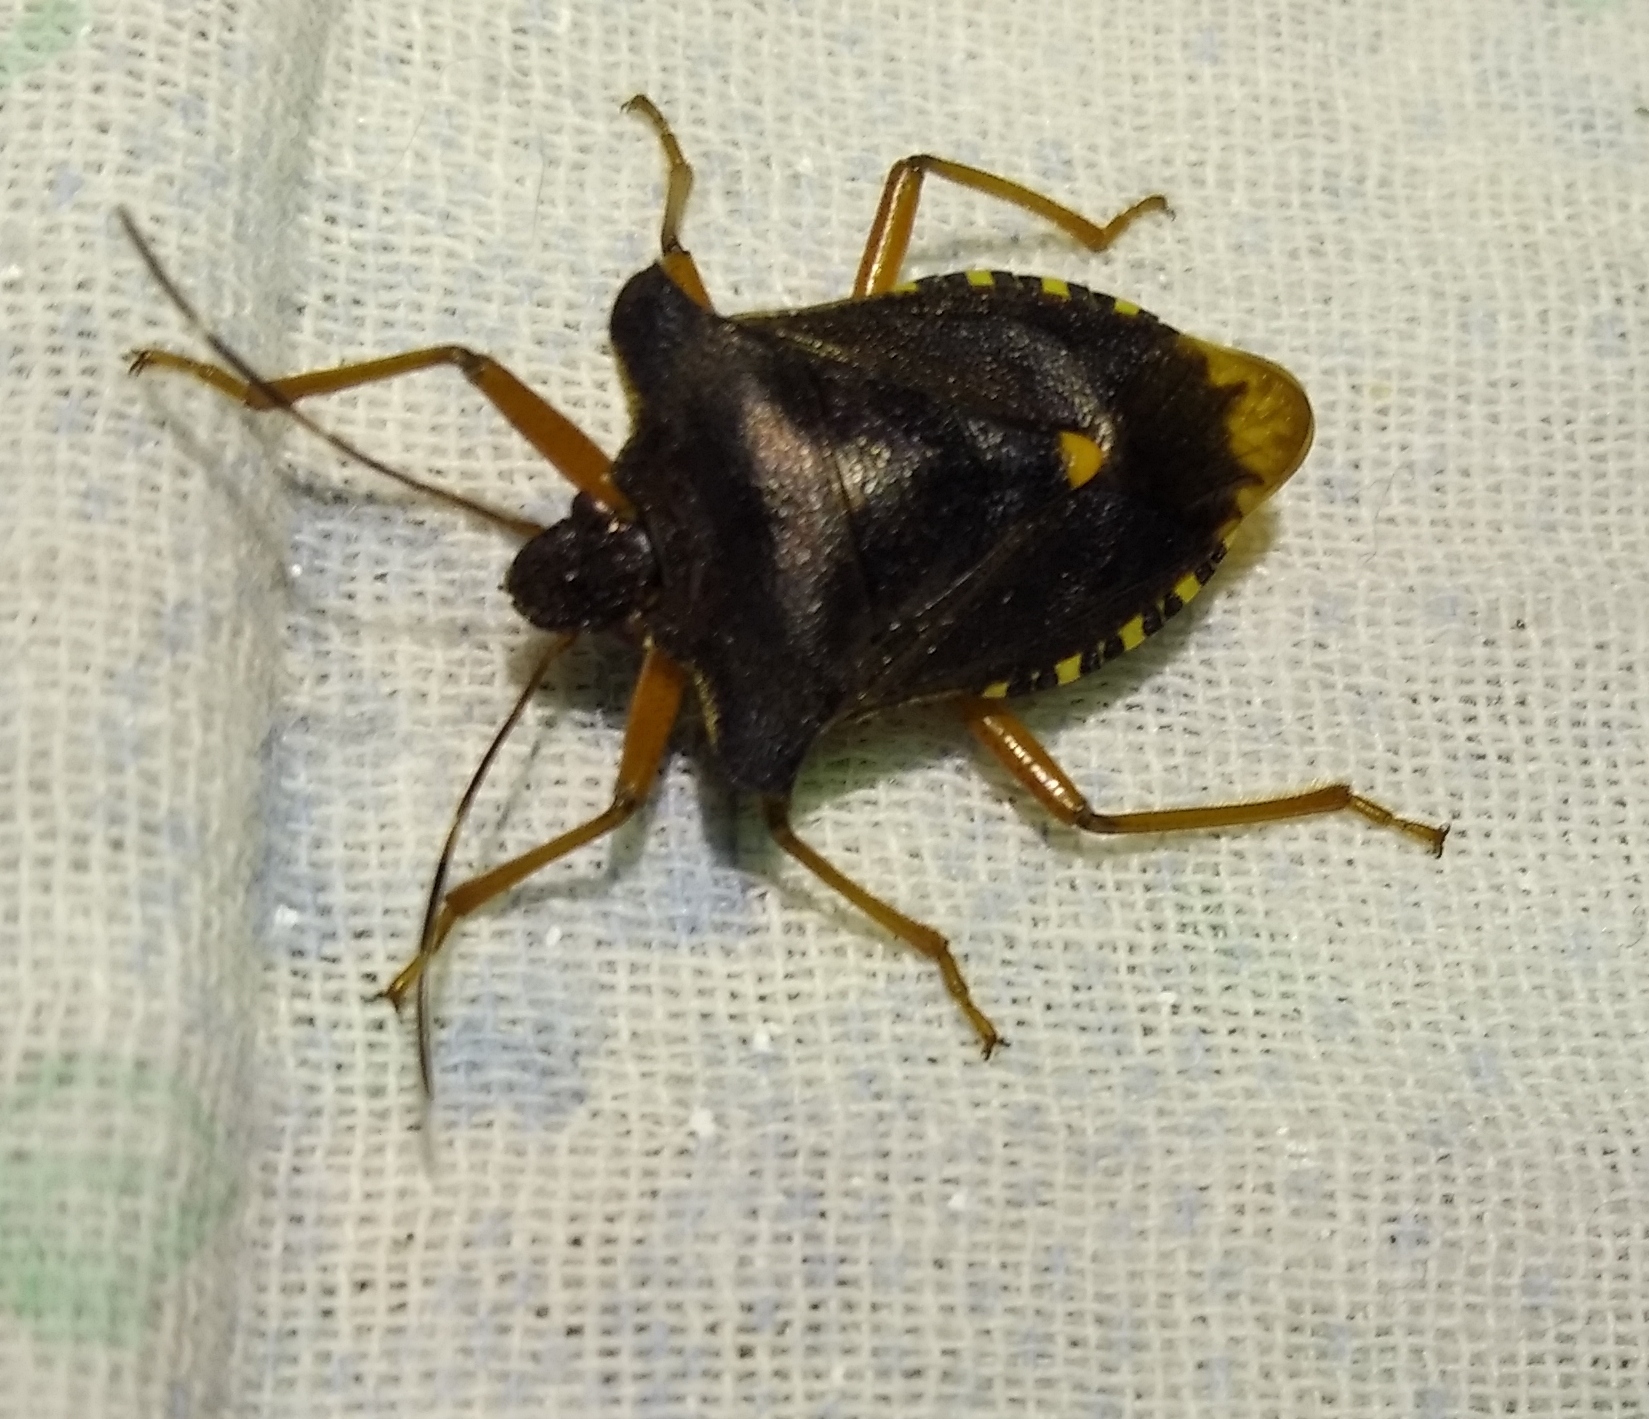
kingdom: Animalia
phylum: Arthropoda
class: Insecta
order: Hemiptera
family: Pentatomidae
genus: Pentatoma
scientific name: Pentatoma rufipes
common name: Forest bug
